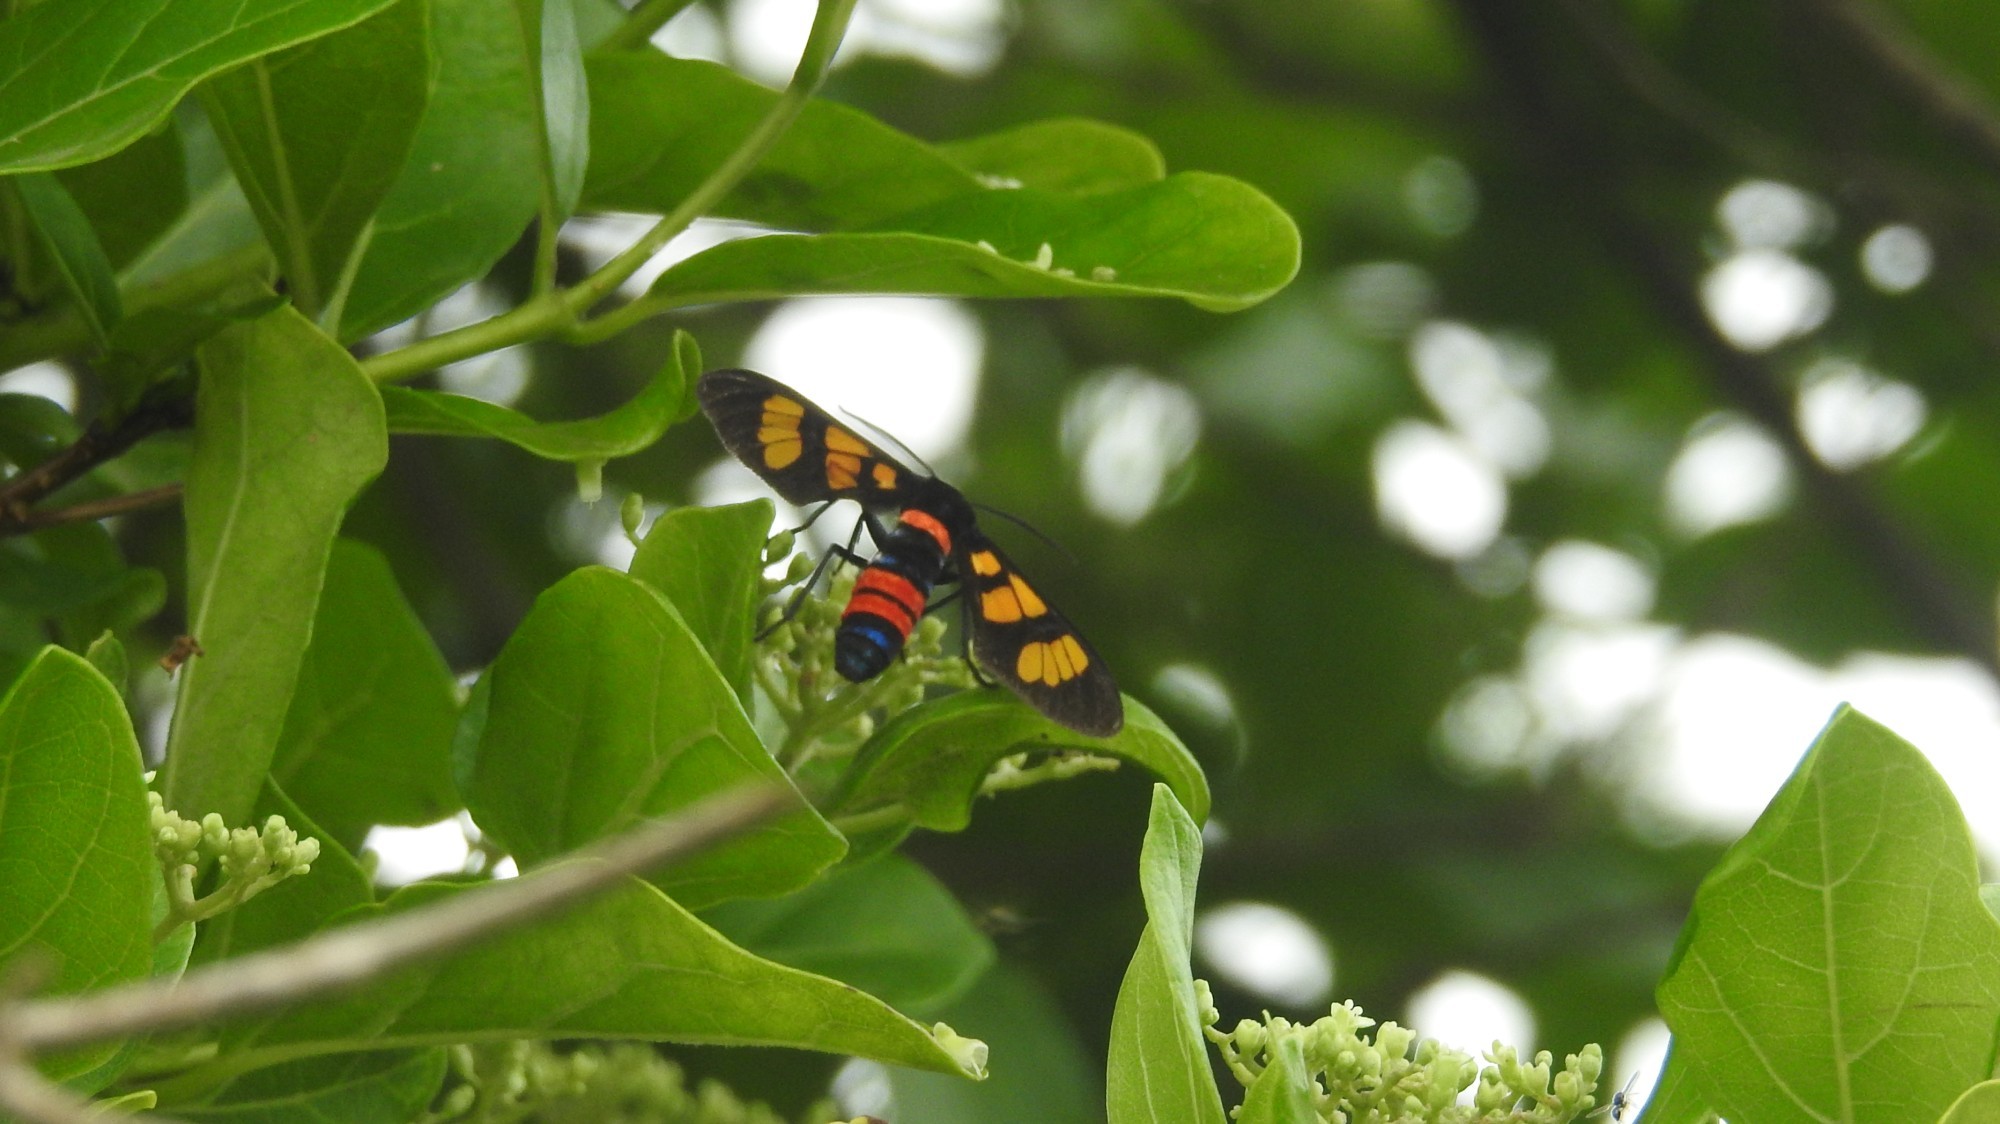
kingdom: Animalia
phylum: Arthropoda
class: Insecta
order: Lepidoptera
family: Erebidae
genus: Euchromia
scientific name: Euchromia polymena
